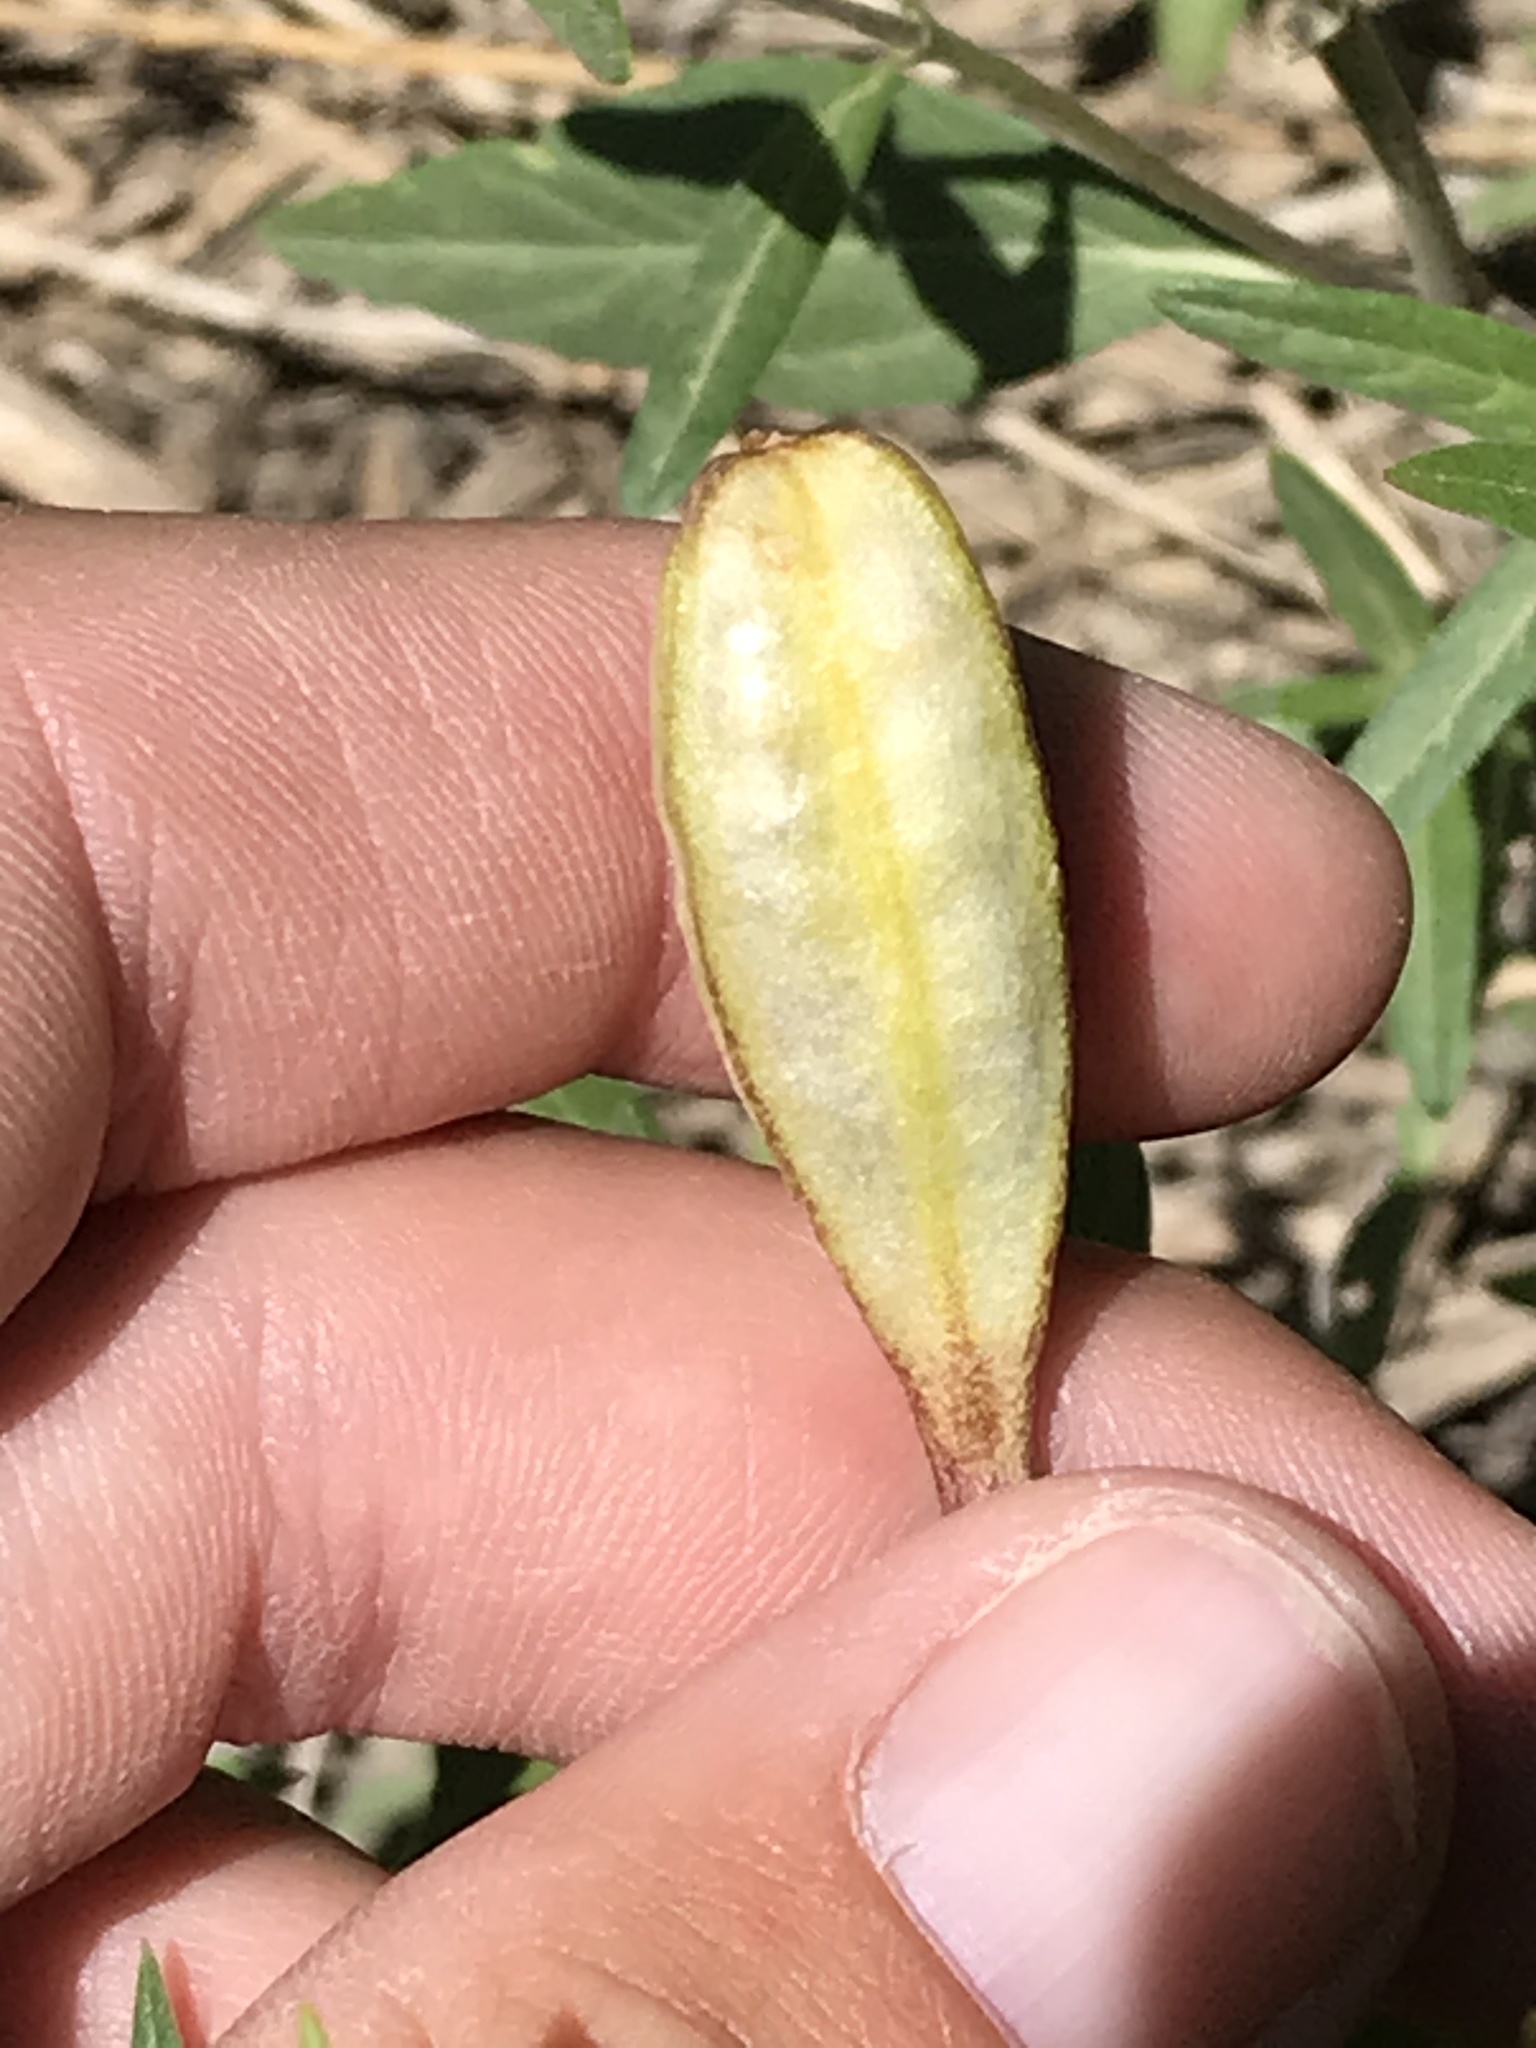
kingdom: Plantae
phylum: Tracheophyta
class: Liliopsida
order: Liliales
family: Liliaceae
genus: Erythronium
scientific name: Erythronium grandiflorum
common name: Avalanche-lily
